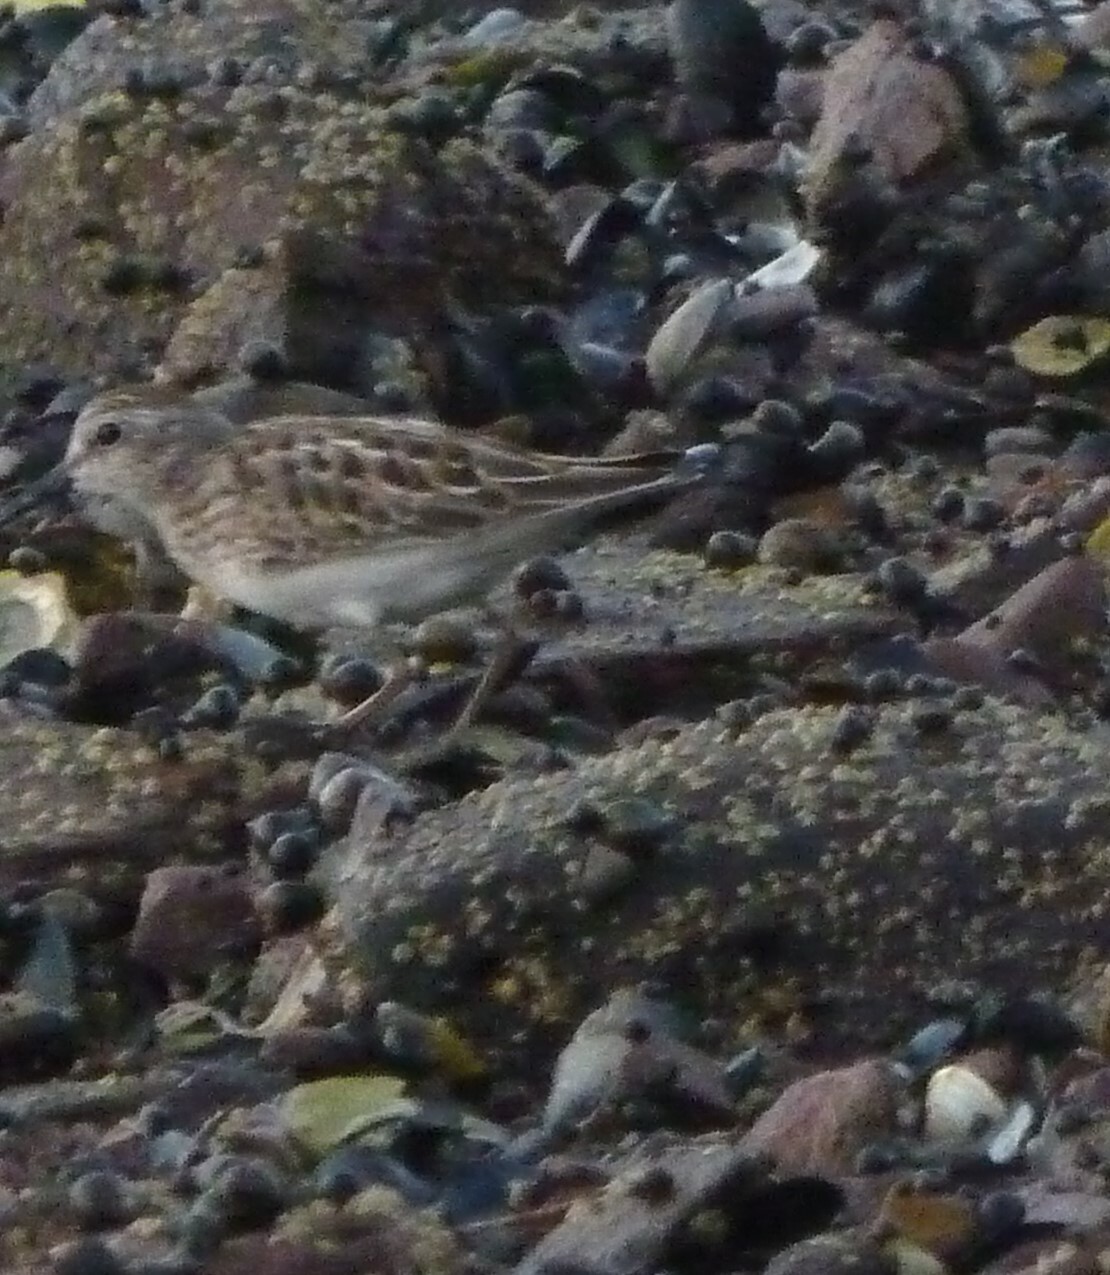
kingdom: Animalia
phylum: Chordata
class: Aves
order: Charadriiformes
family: Scolopacidae
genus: Calidris
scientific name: Calidris minutilla
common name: Least sandpiper
